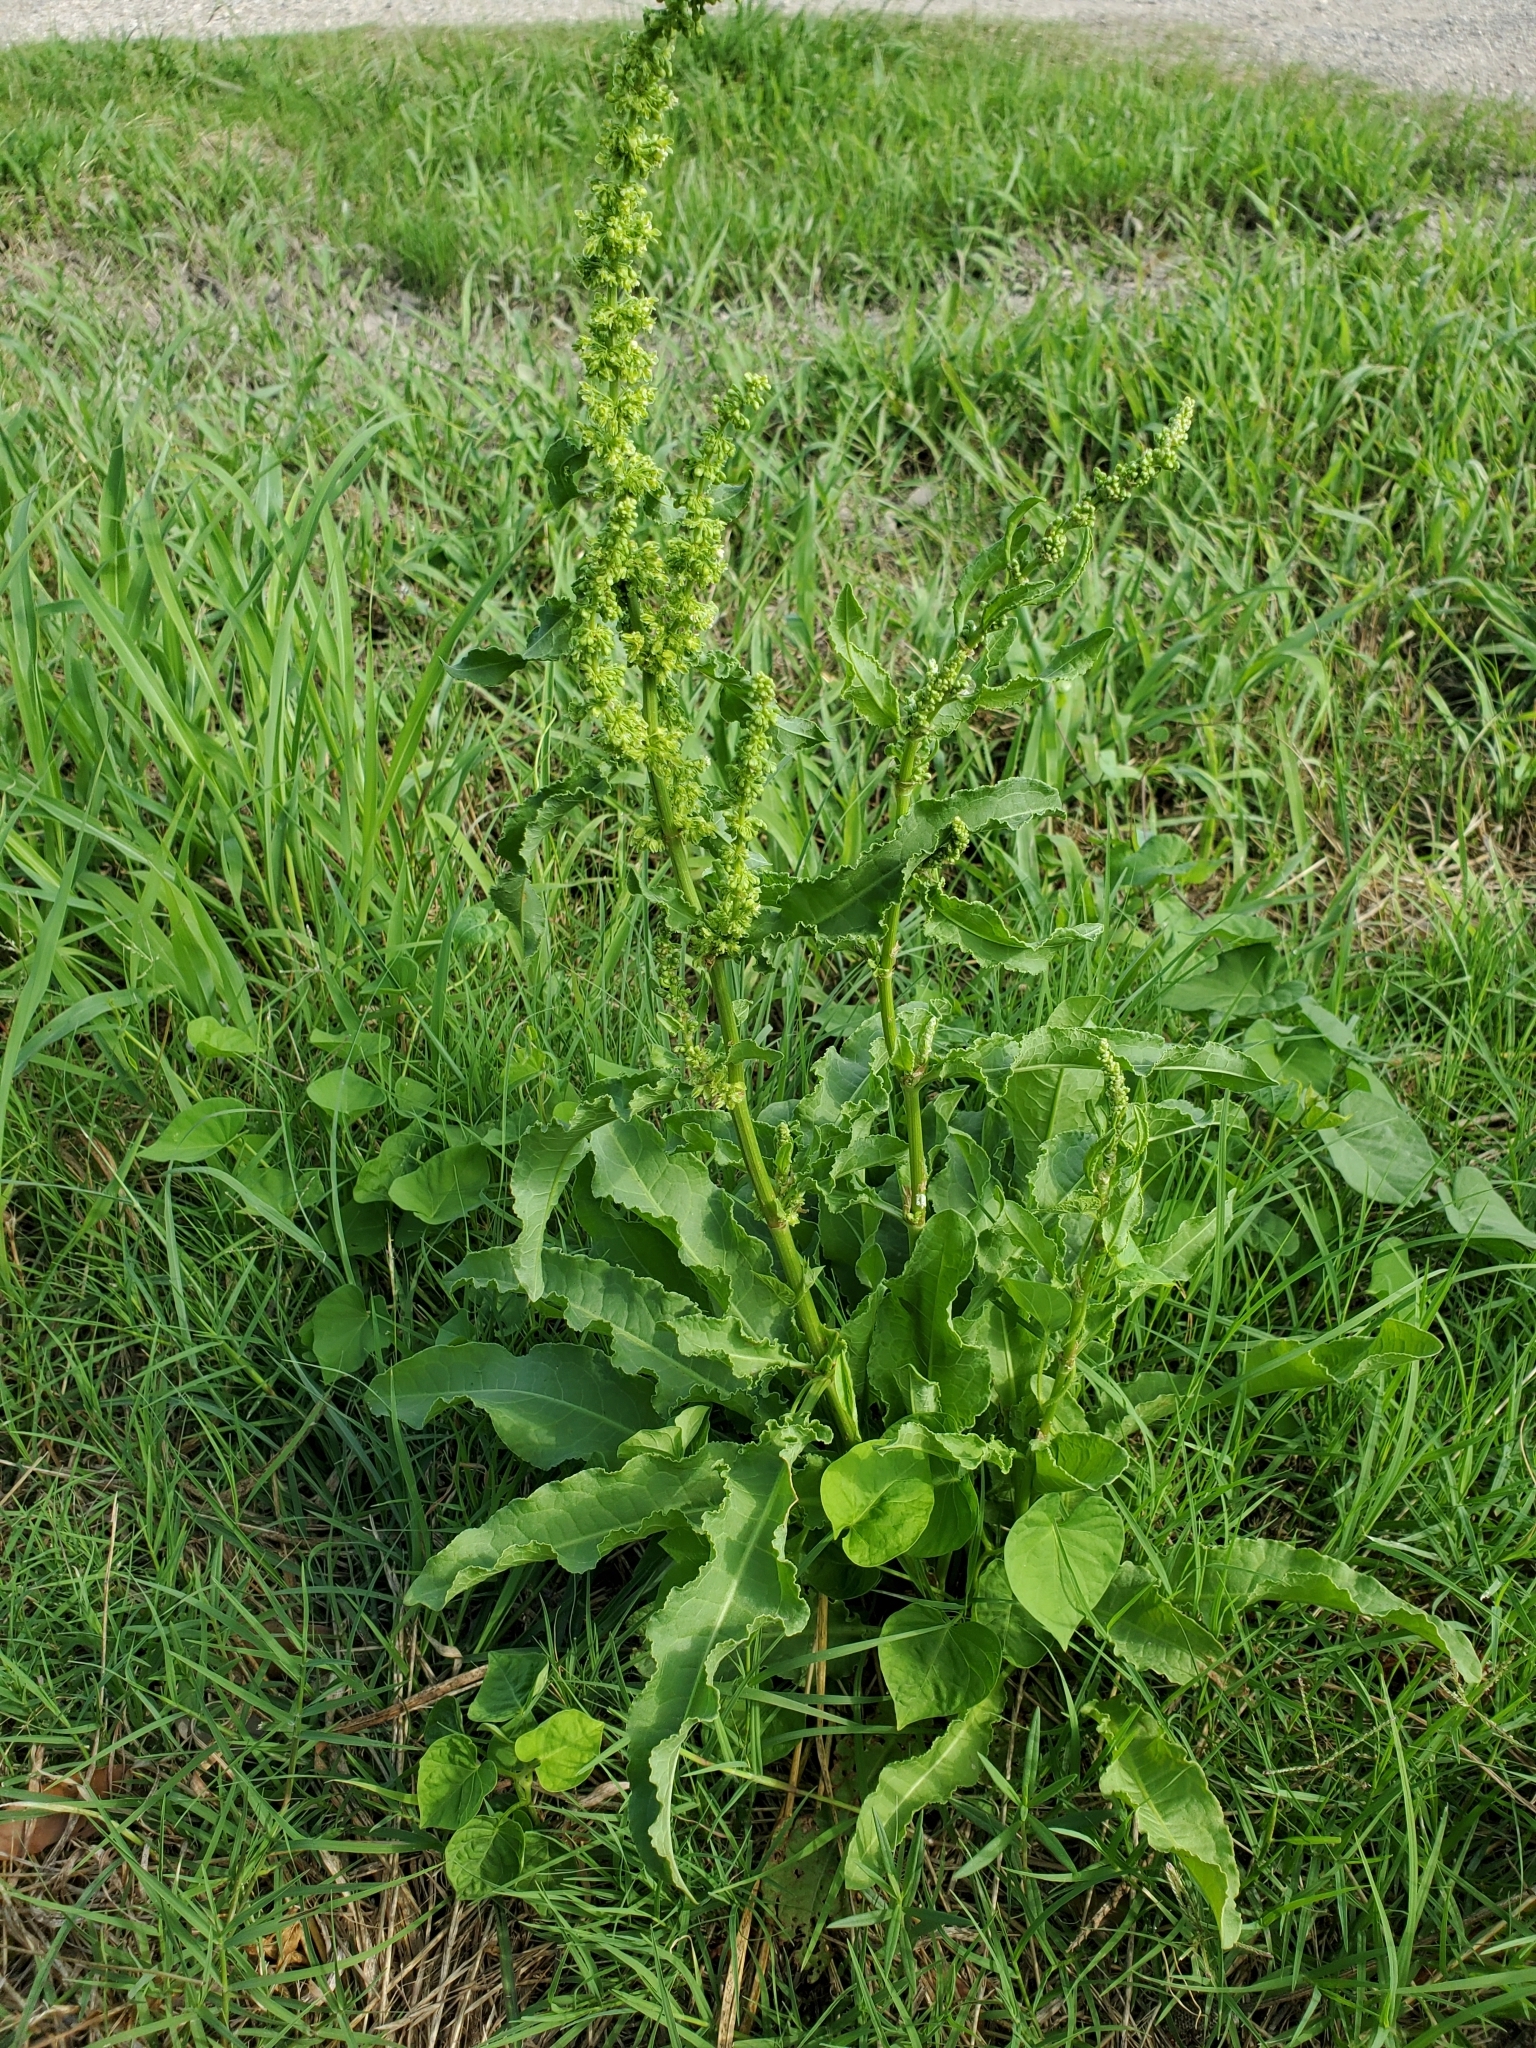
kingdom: Plantae
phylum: Tracheophyta
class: Magnoliopsida
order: Caryophyllales
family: Polygonaceae
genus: Rumex
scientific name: Rumex crispus
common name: Curled dock
